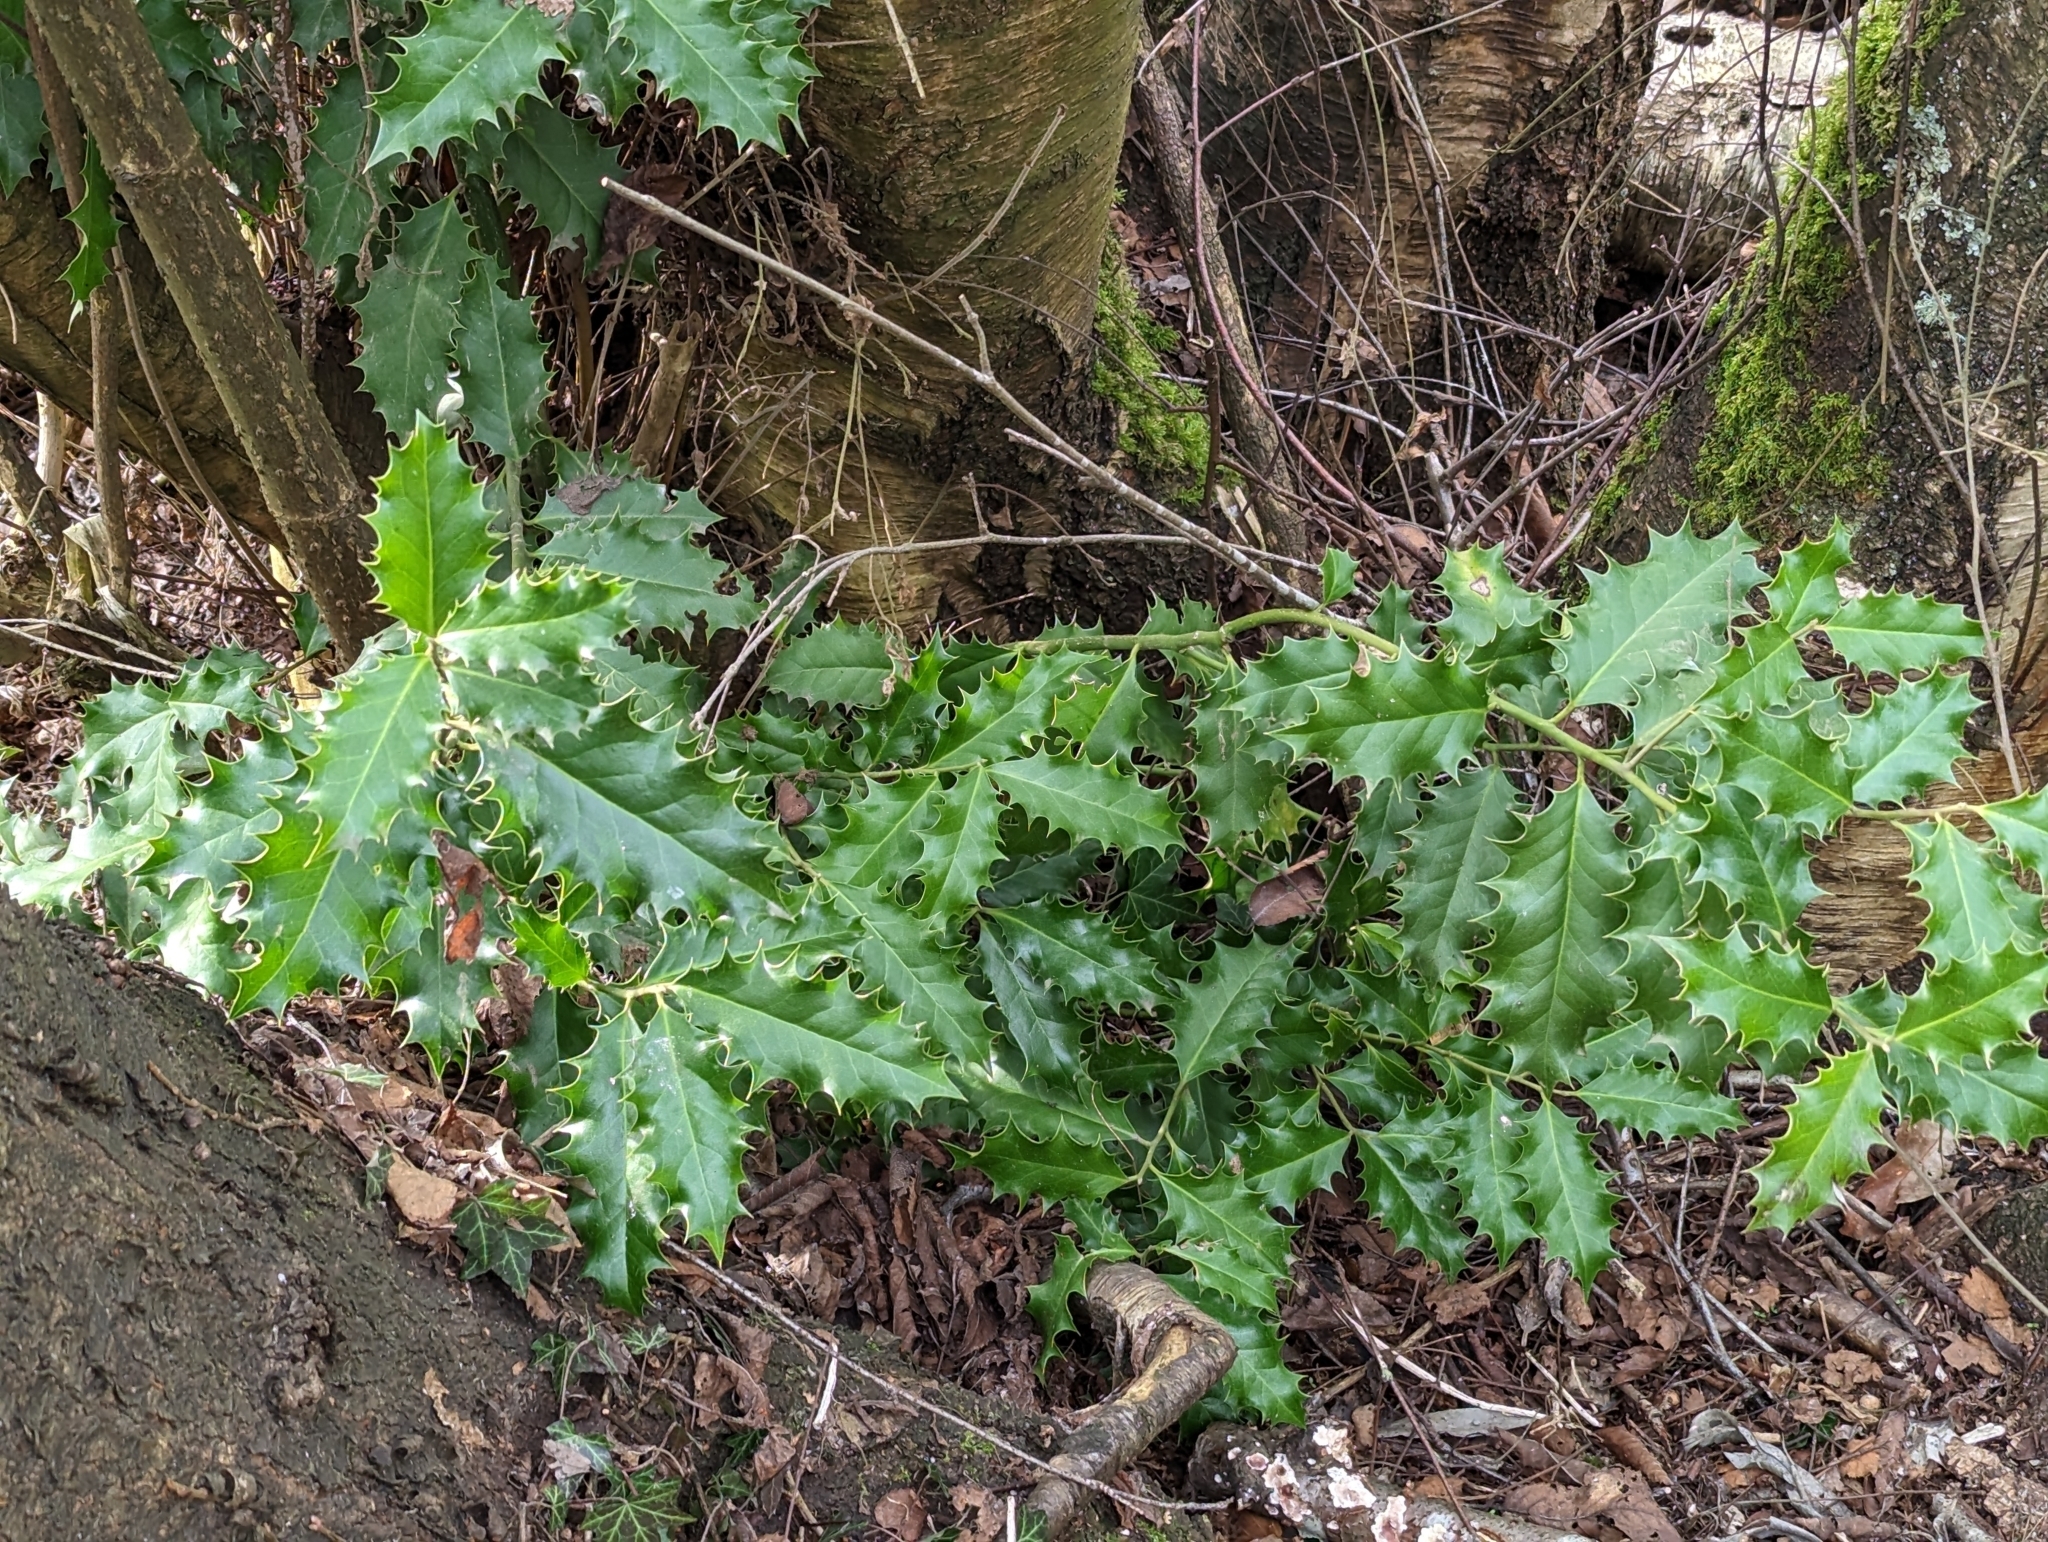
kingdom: Plantae
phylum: Tracheophyta
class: Magnoliopsida
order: Aquifoliales
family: Aquifoliaceae
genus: Ilex
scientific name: Ilex aquifolium
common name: English holly
